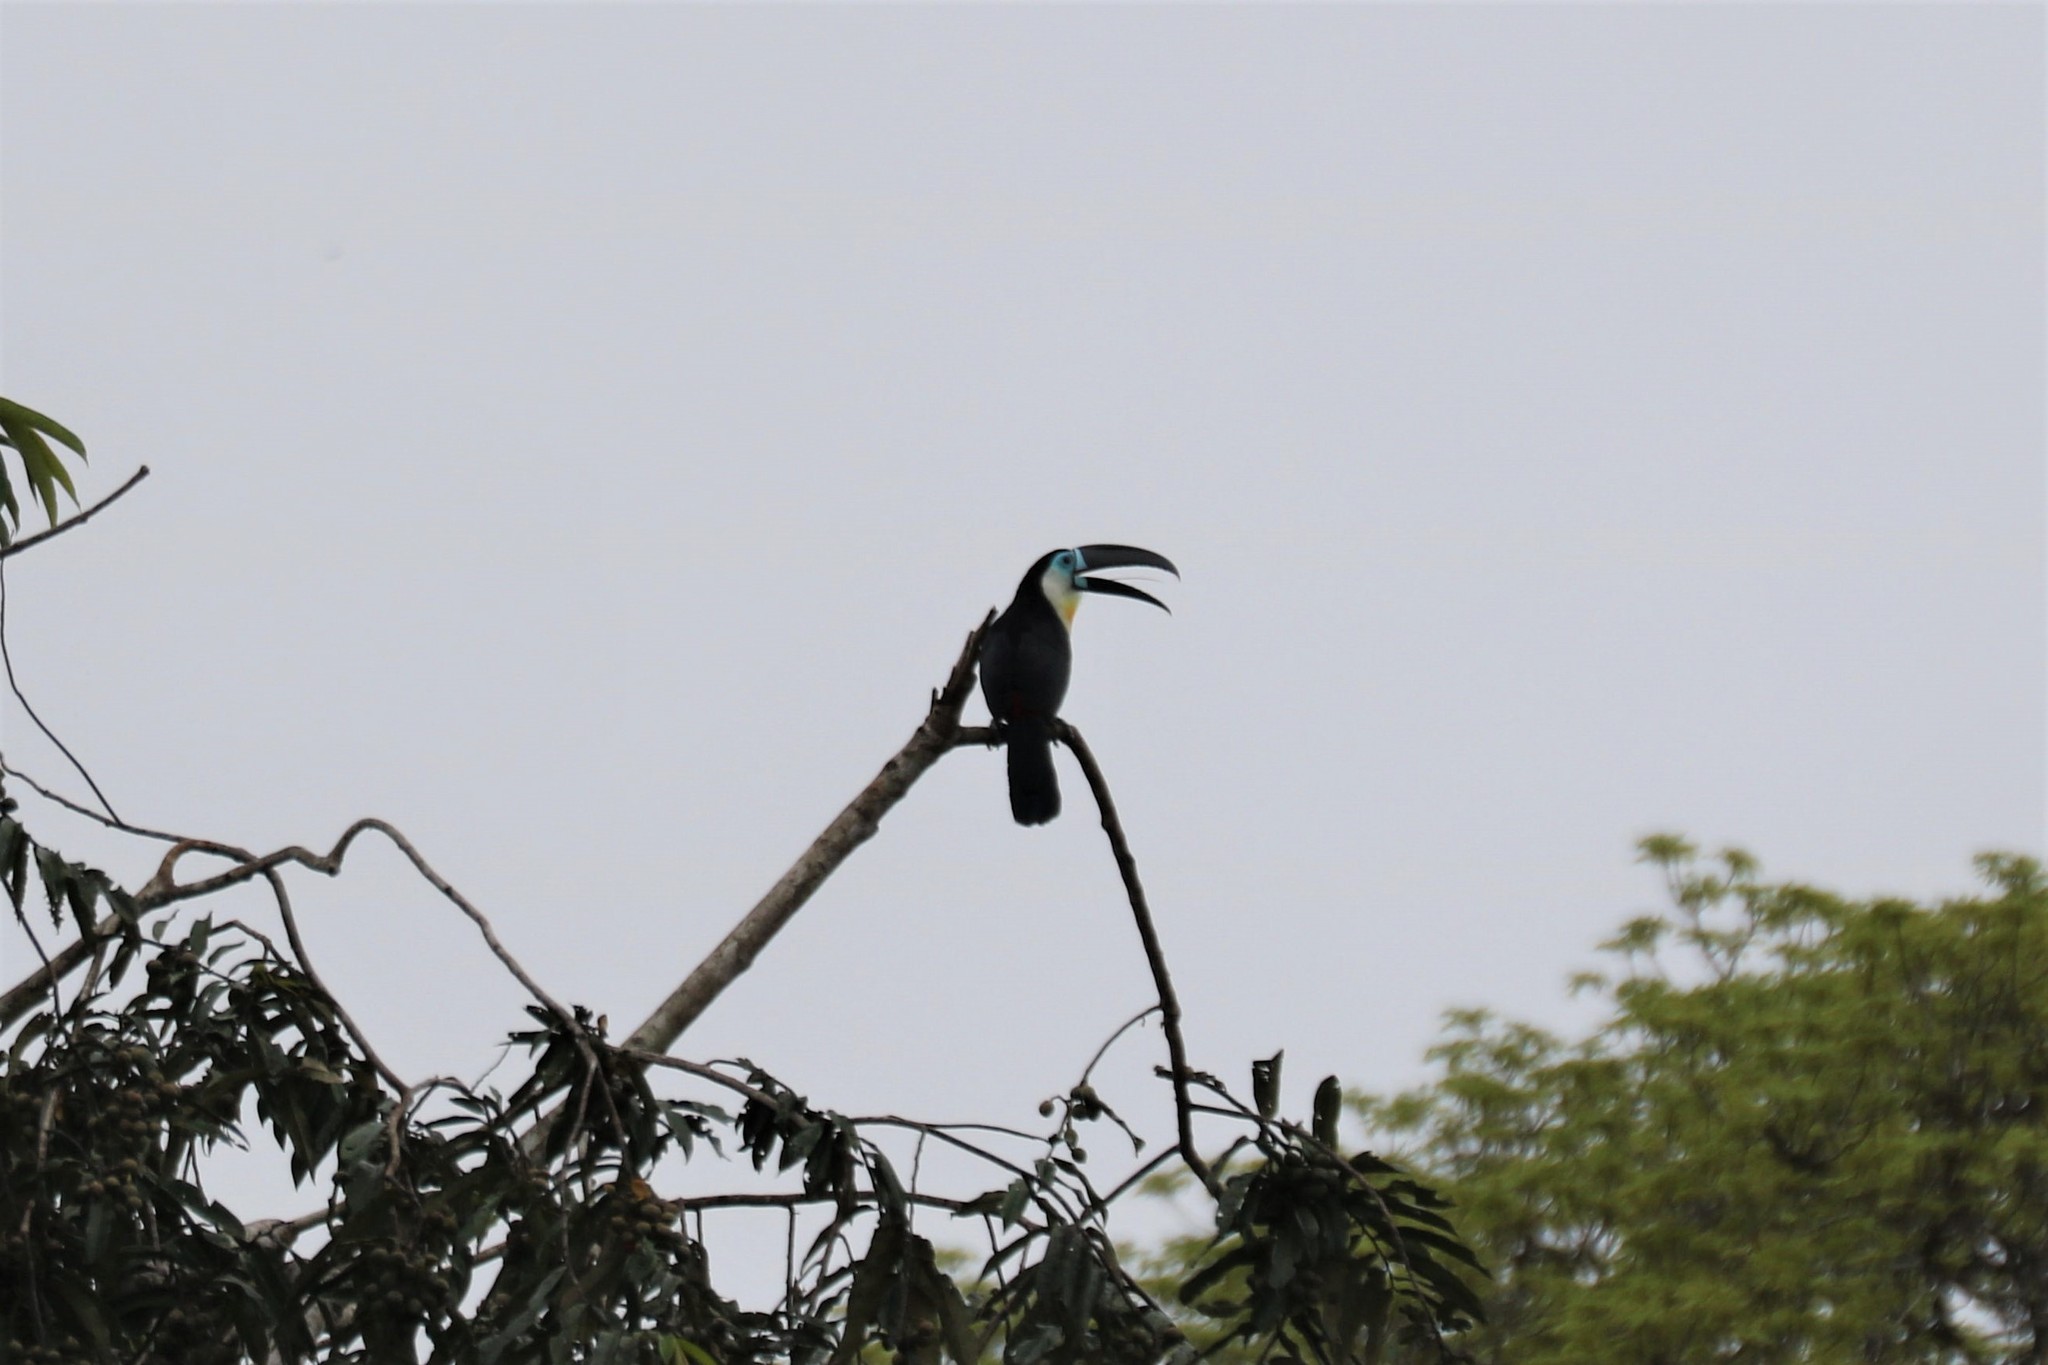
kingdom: Animalia
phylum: Chordata
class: Aves
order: Piciformes
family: Ramphastidae
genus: Ramphastos
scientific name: Ramphastos vitellinus
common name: Channel-billed toucan
